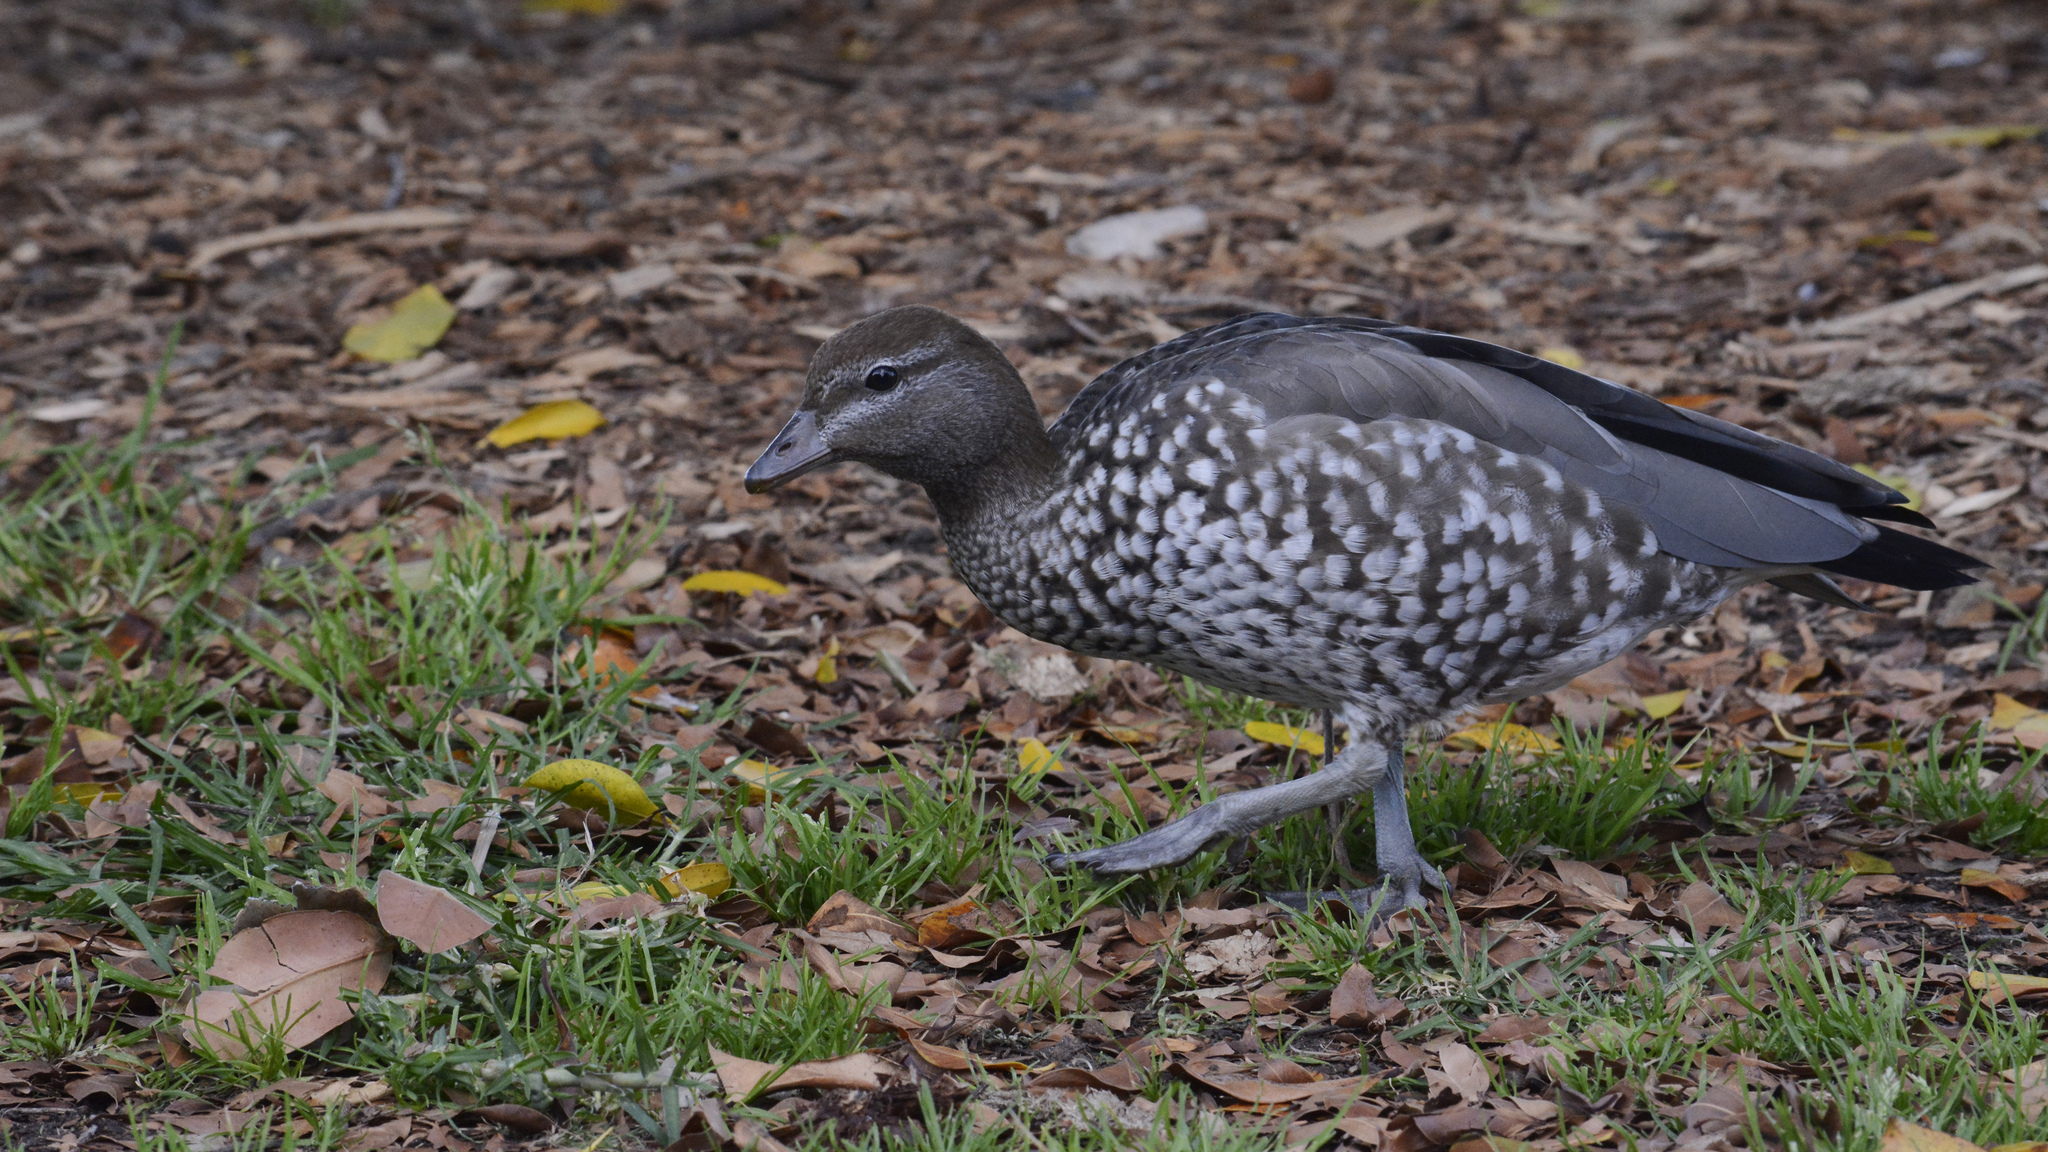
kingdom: Animalia
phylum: Chordata
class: Aves
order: Anseriformes
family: Anatidae
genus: Chenonetta
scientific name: Chenonetta jubata
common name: Maned duck
